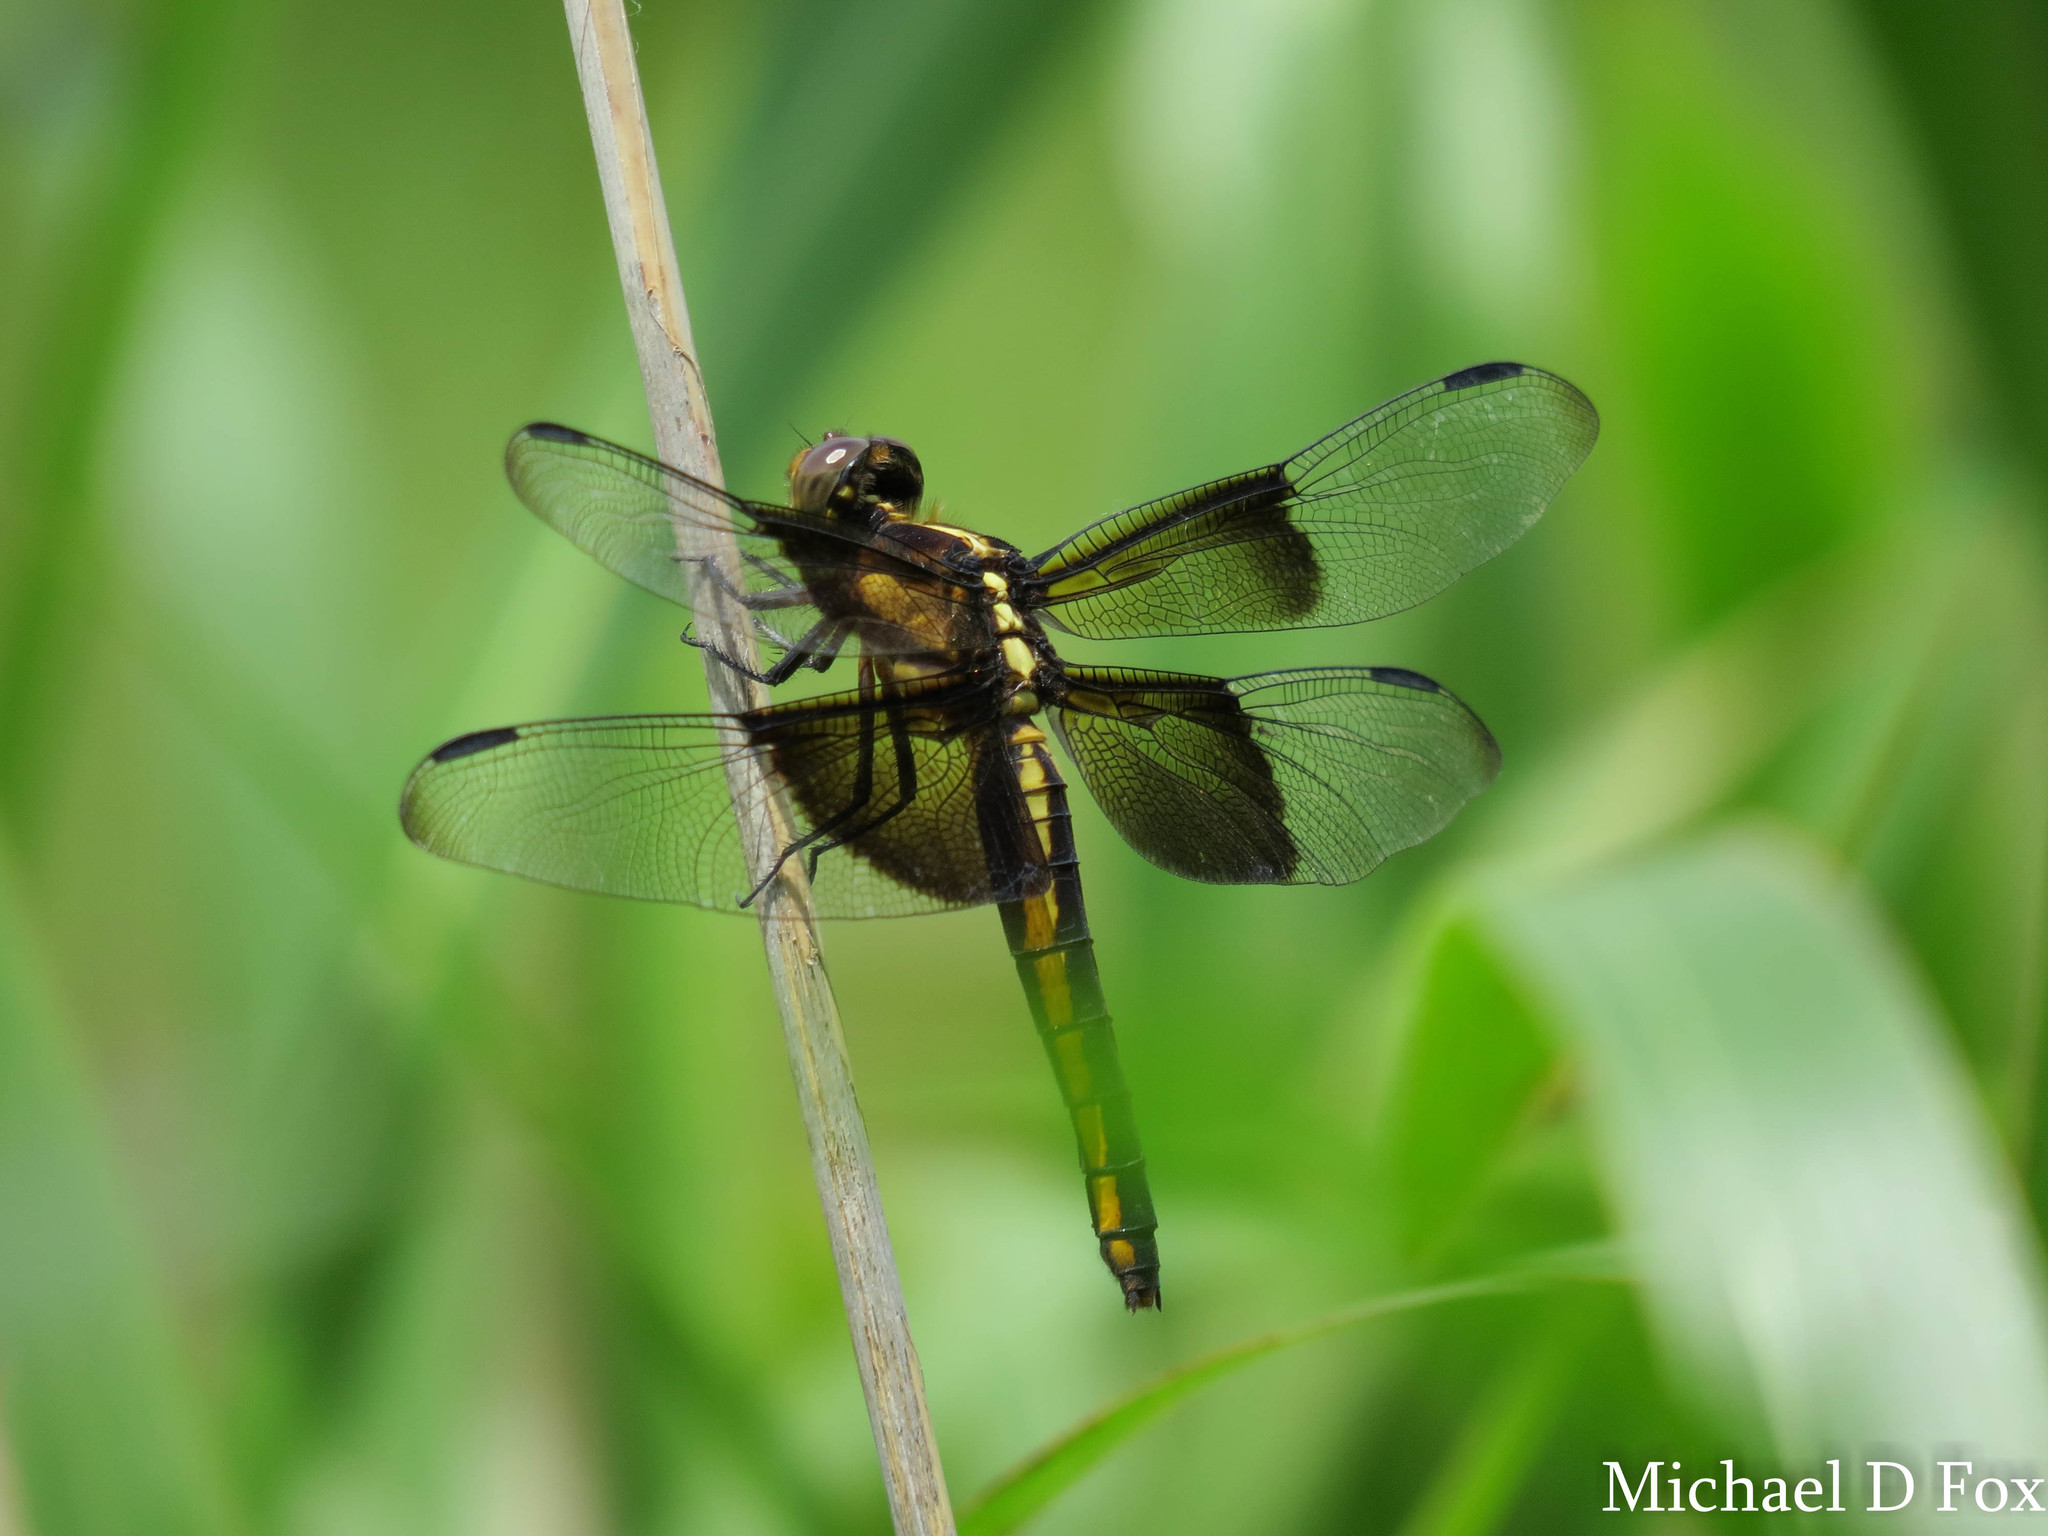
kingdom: Animalia
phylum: Arthropoda
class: Insecta
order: Odonata
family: Libellulidae
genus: Libellula
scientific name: Libellula luctuosa
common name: Widow skimmer
